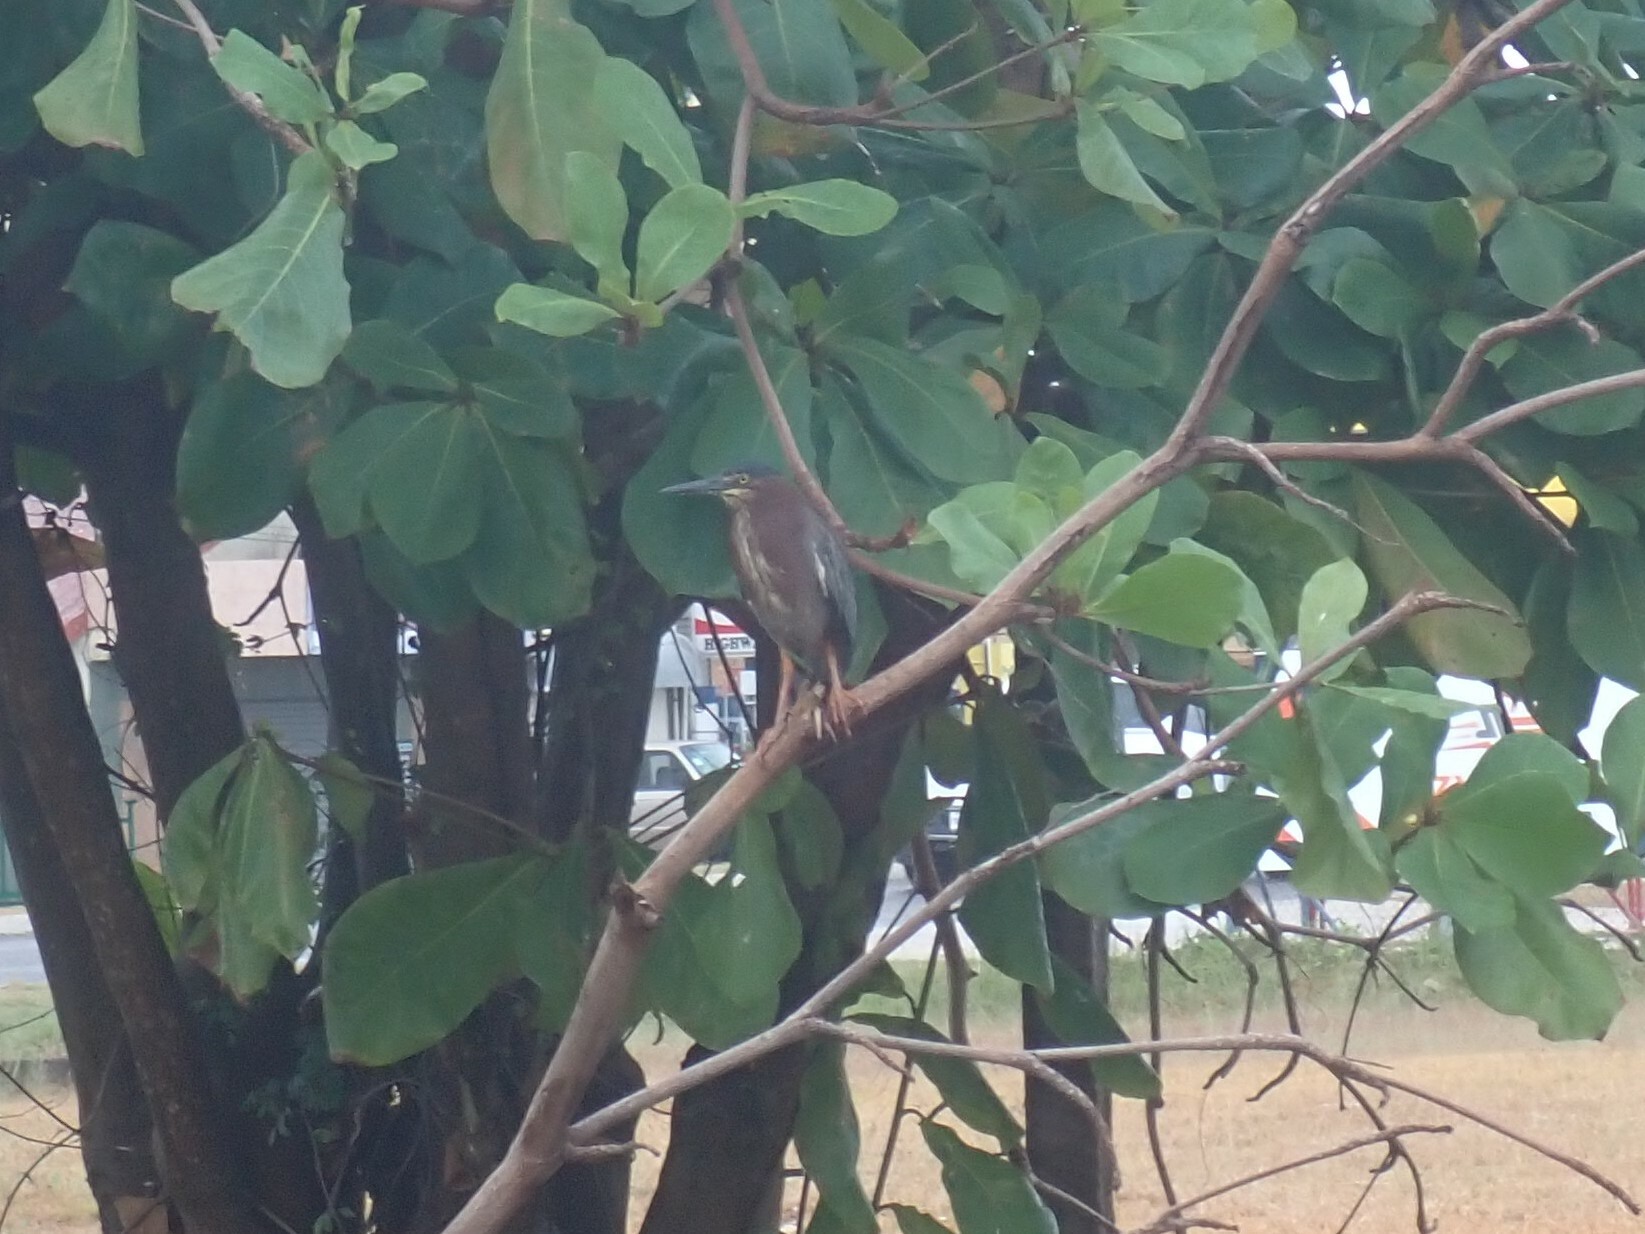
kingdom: Animalia
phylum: Chordata
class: Aves
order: Pelecaniformes
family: Ardeidae
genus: Butorides
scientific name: Butorides virescens
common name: Green heron
